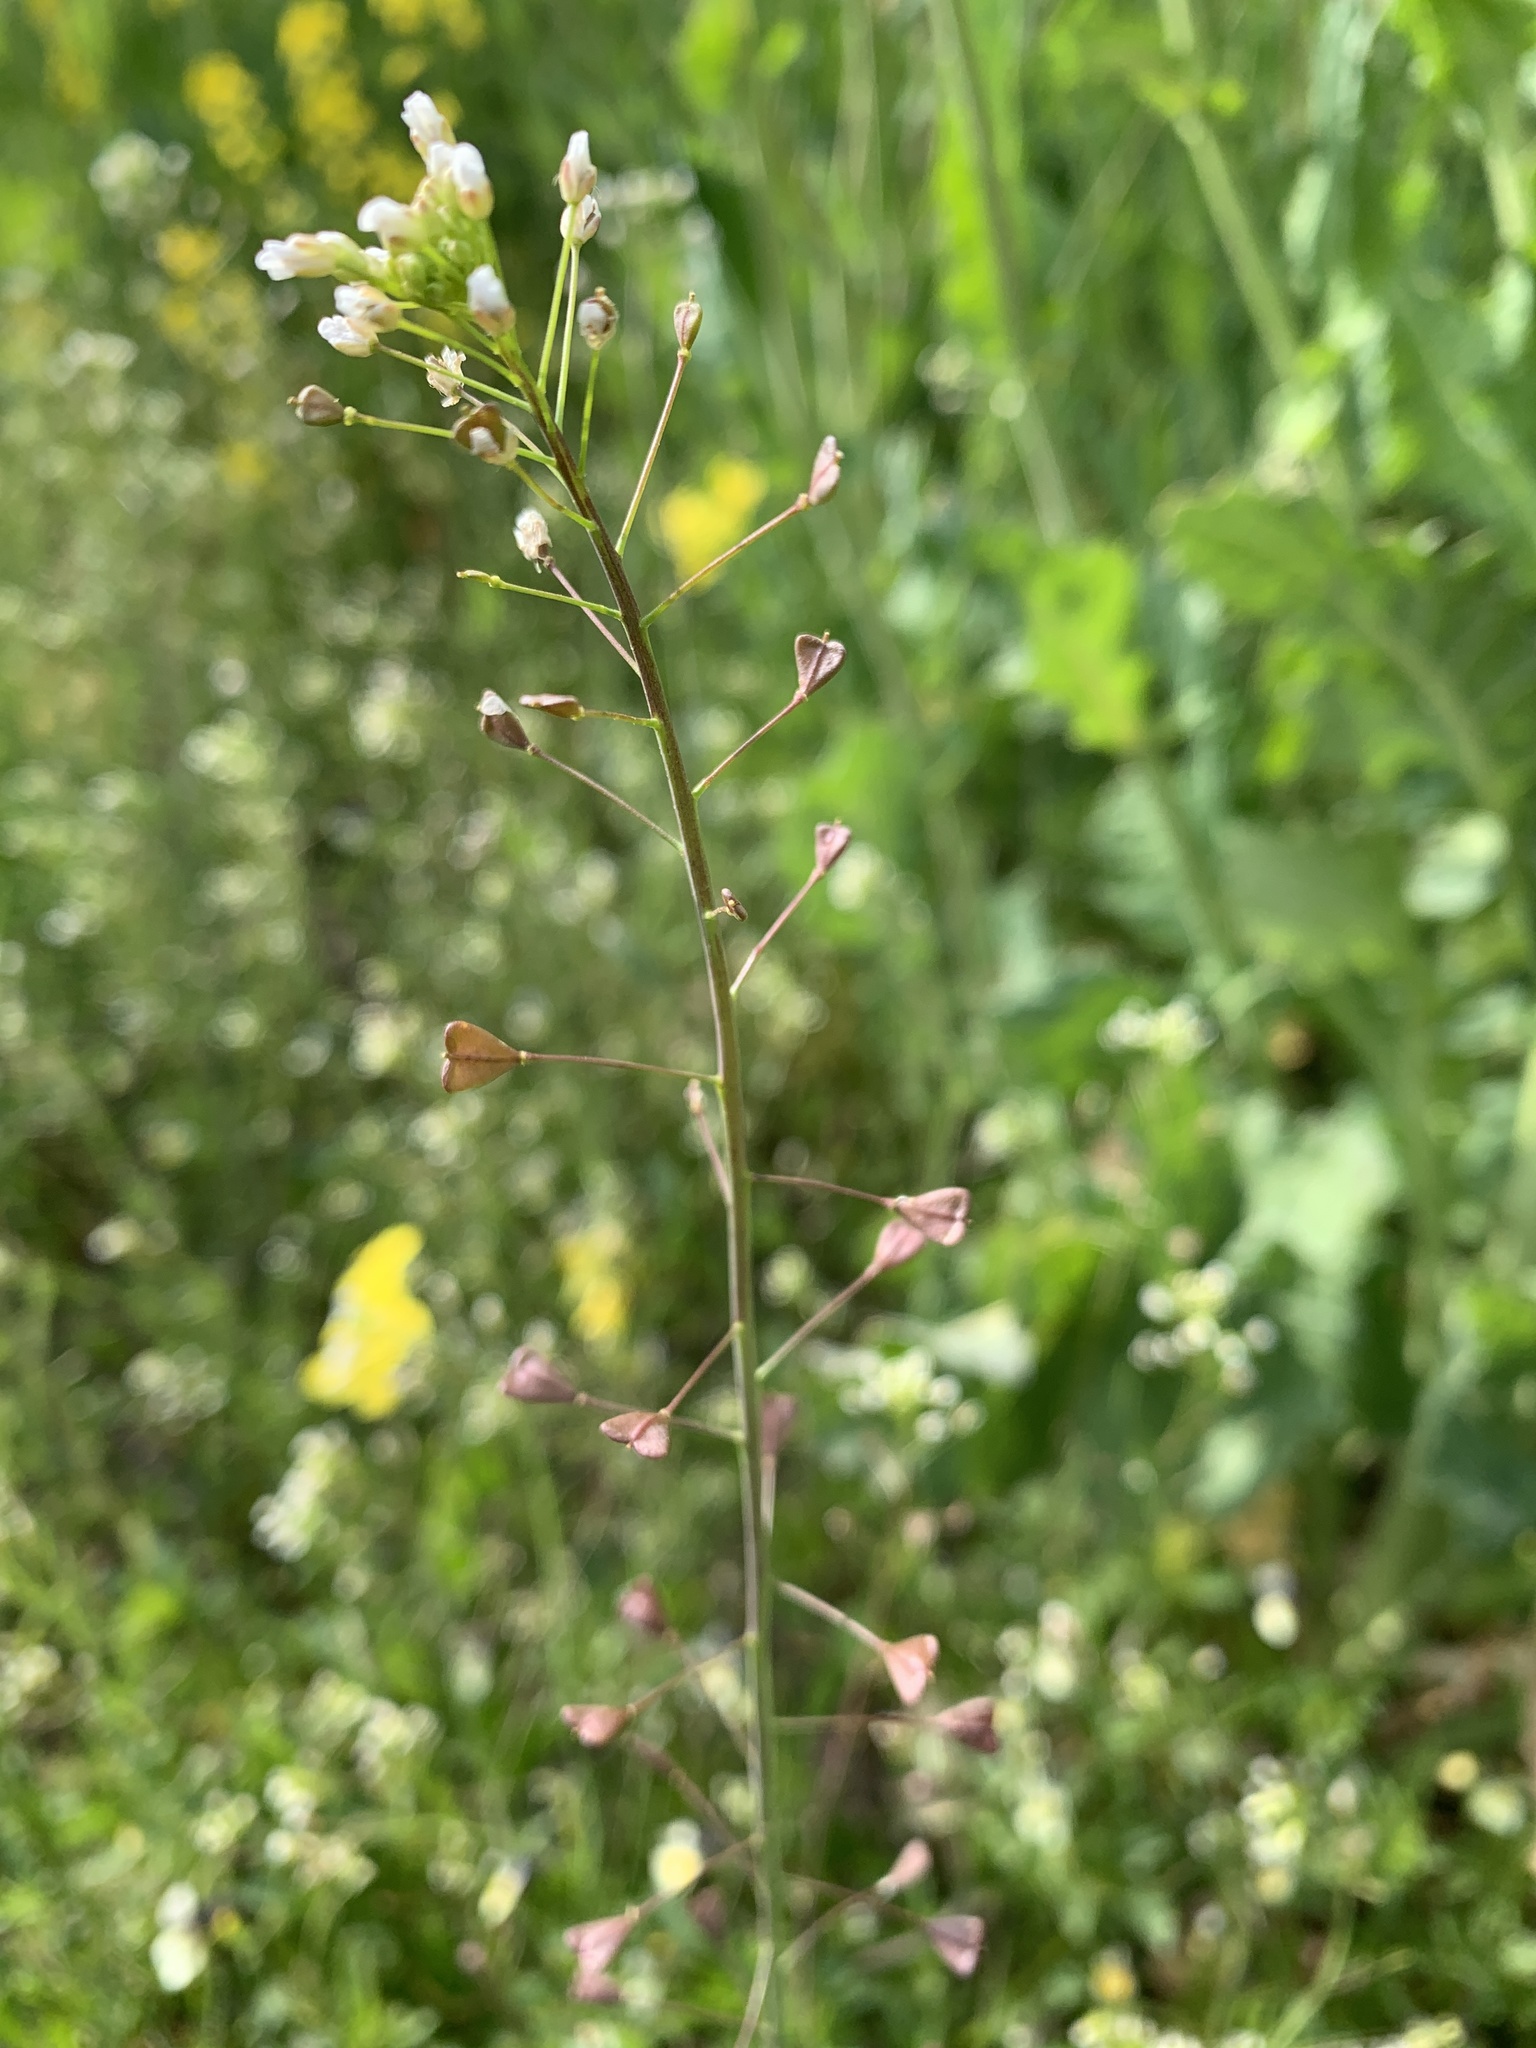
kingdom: Plantae
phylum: Tracheophyta
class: Magnoliopsida
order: Brassicales
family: Brassicaceae
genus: Capsella
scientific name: Capsella bursa-pastoris
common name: Shepherd's purse
